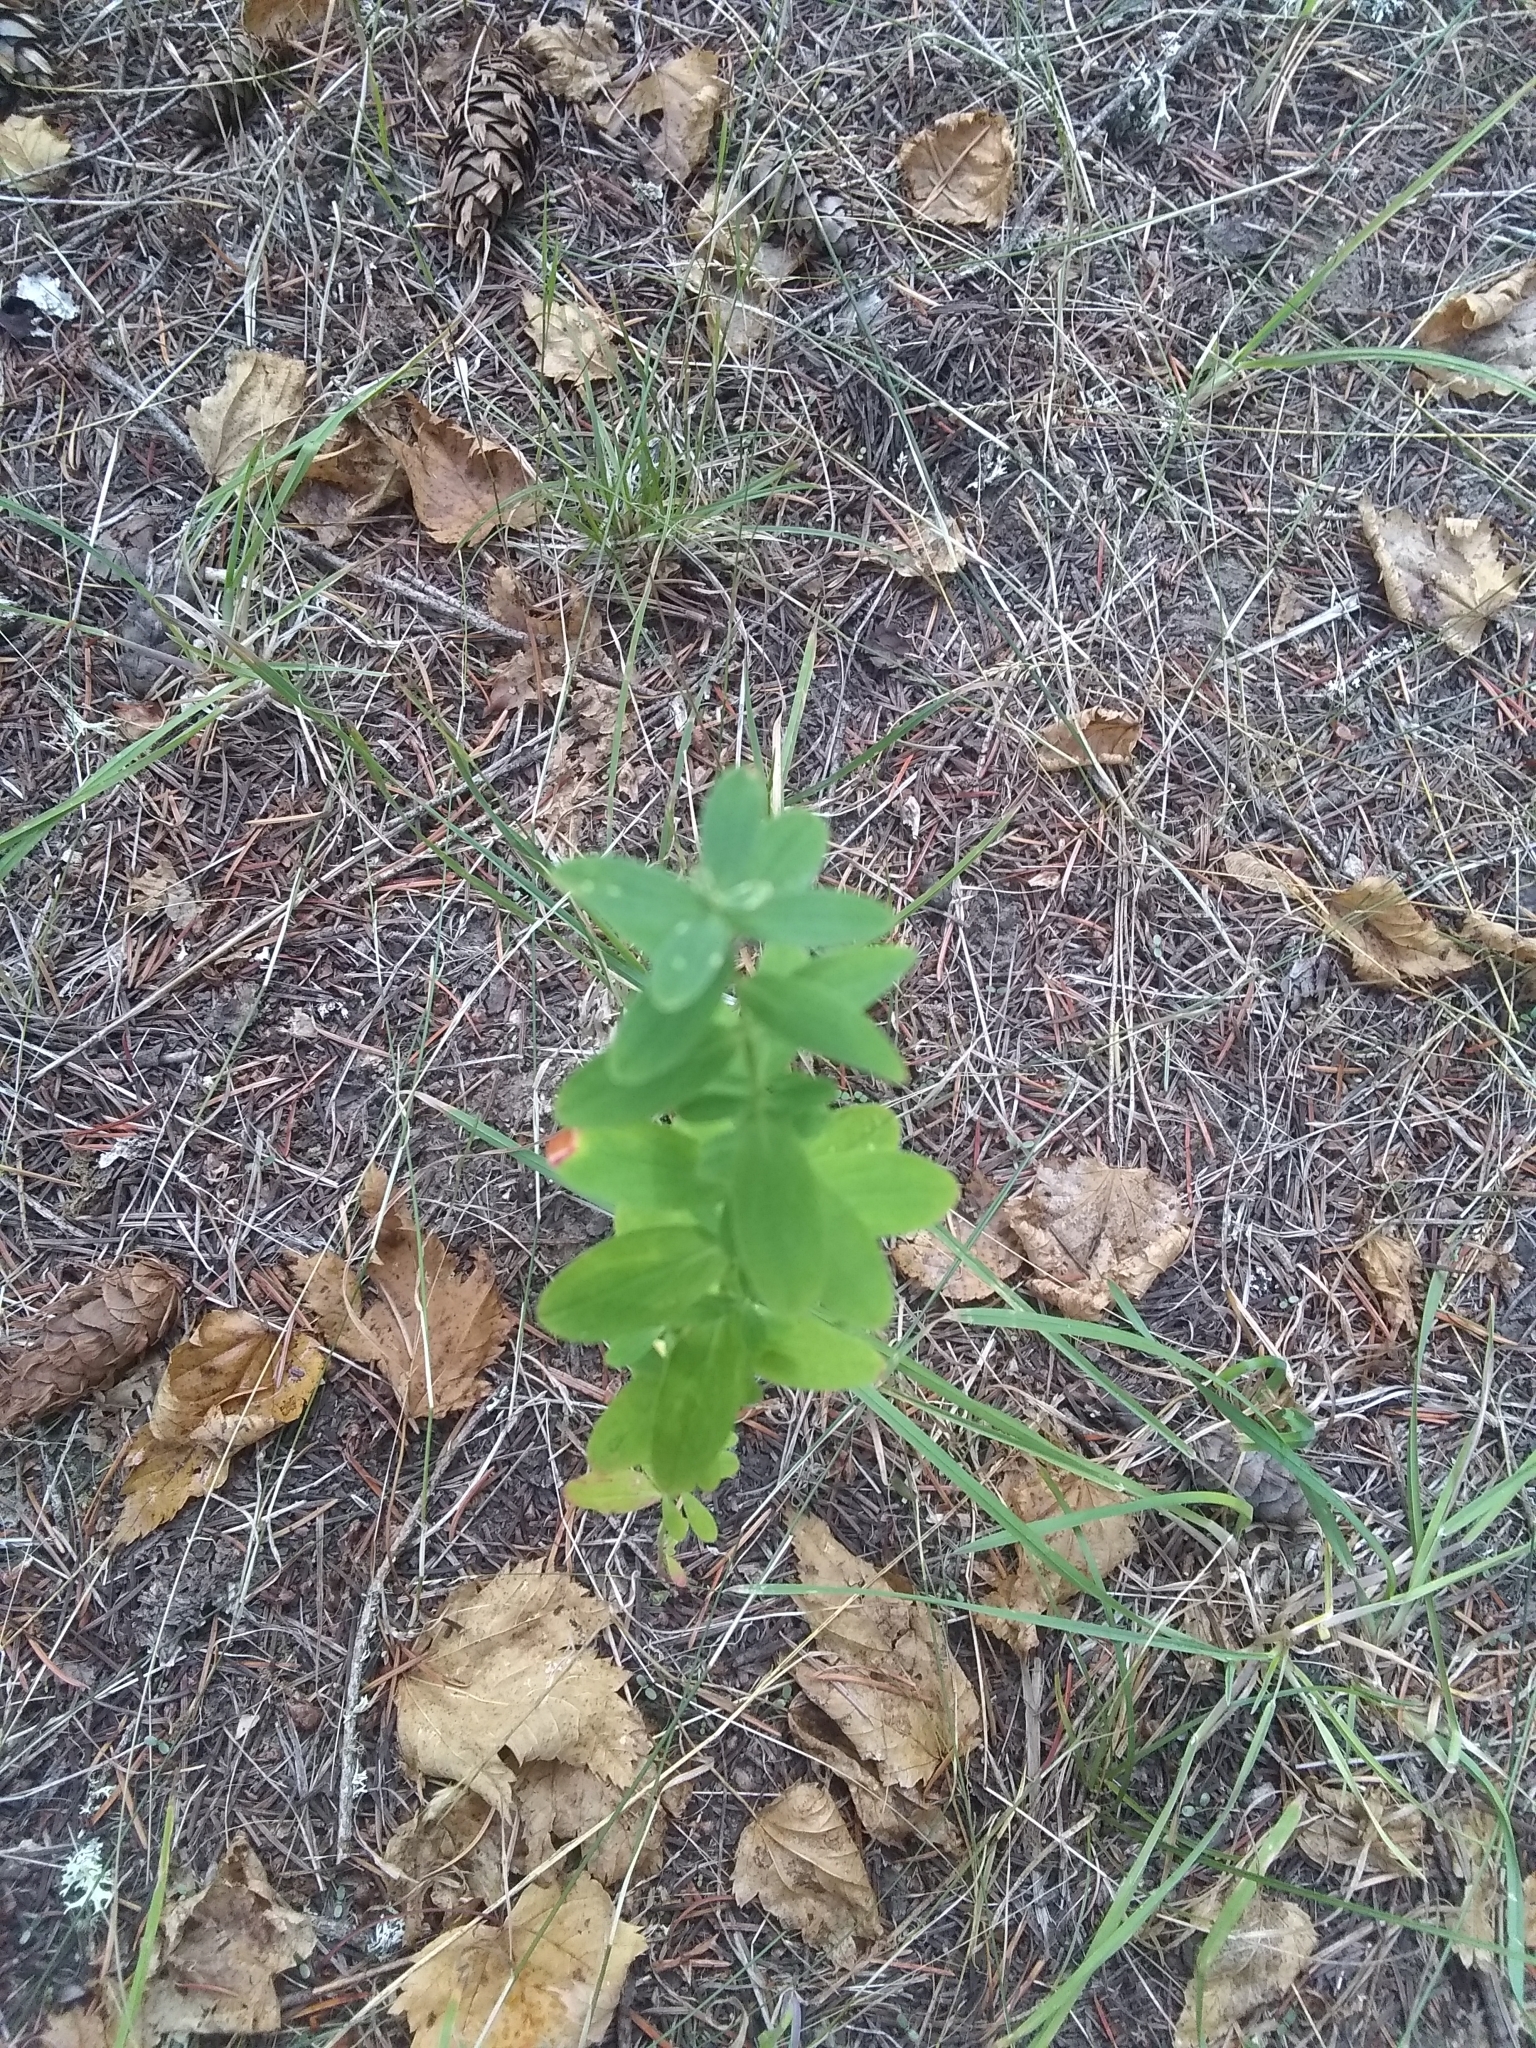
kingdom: Plantae
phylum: Tracheophyta
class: Magnoliopsida
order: Malpighiales
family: Hypericaceae
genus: Hypericum
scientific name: Hypericum perforatum
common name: Common st. johnswort
